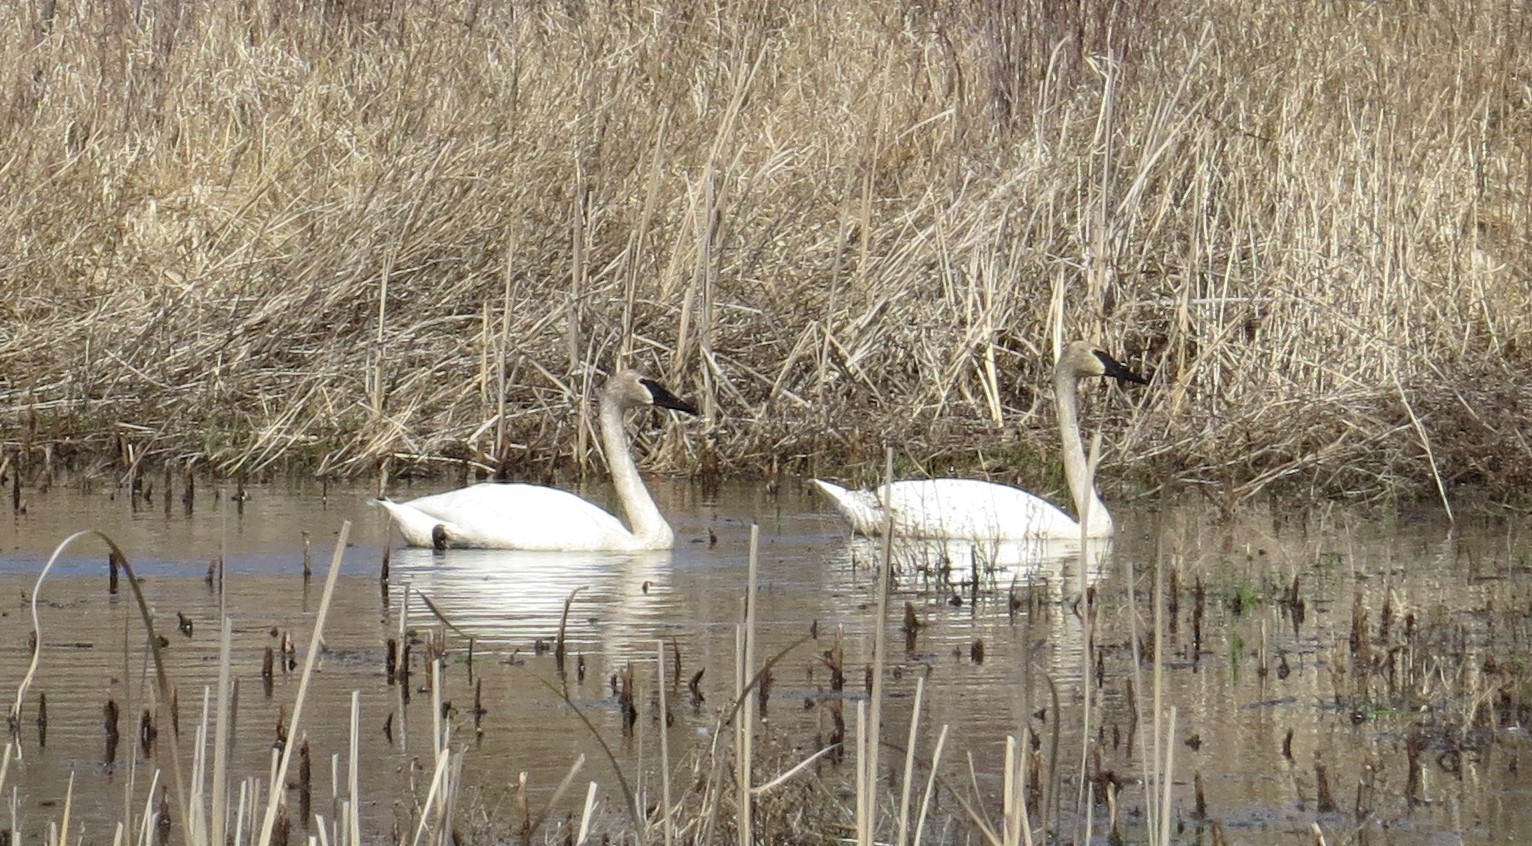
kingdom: Animalia
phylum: Chordata
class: Aves
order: Anseriformes
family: Anatidae
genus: Cygnus
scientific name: Cygnus buccinator
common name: Trumpeter swan
